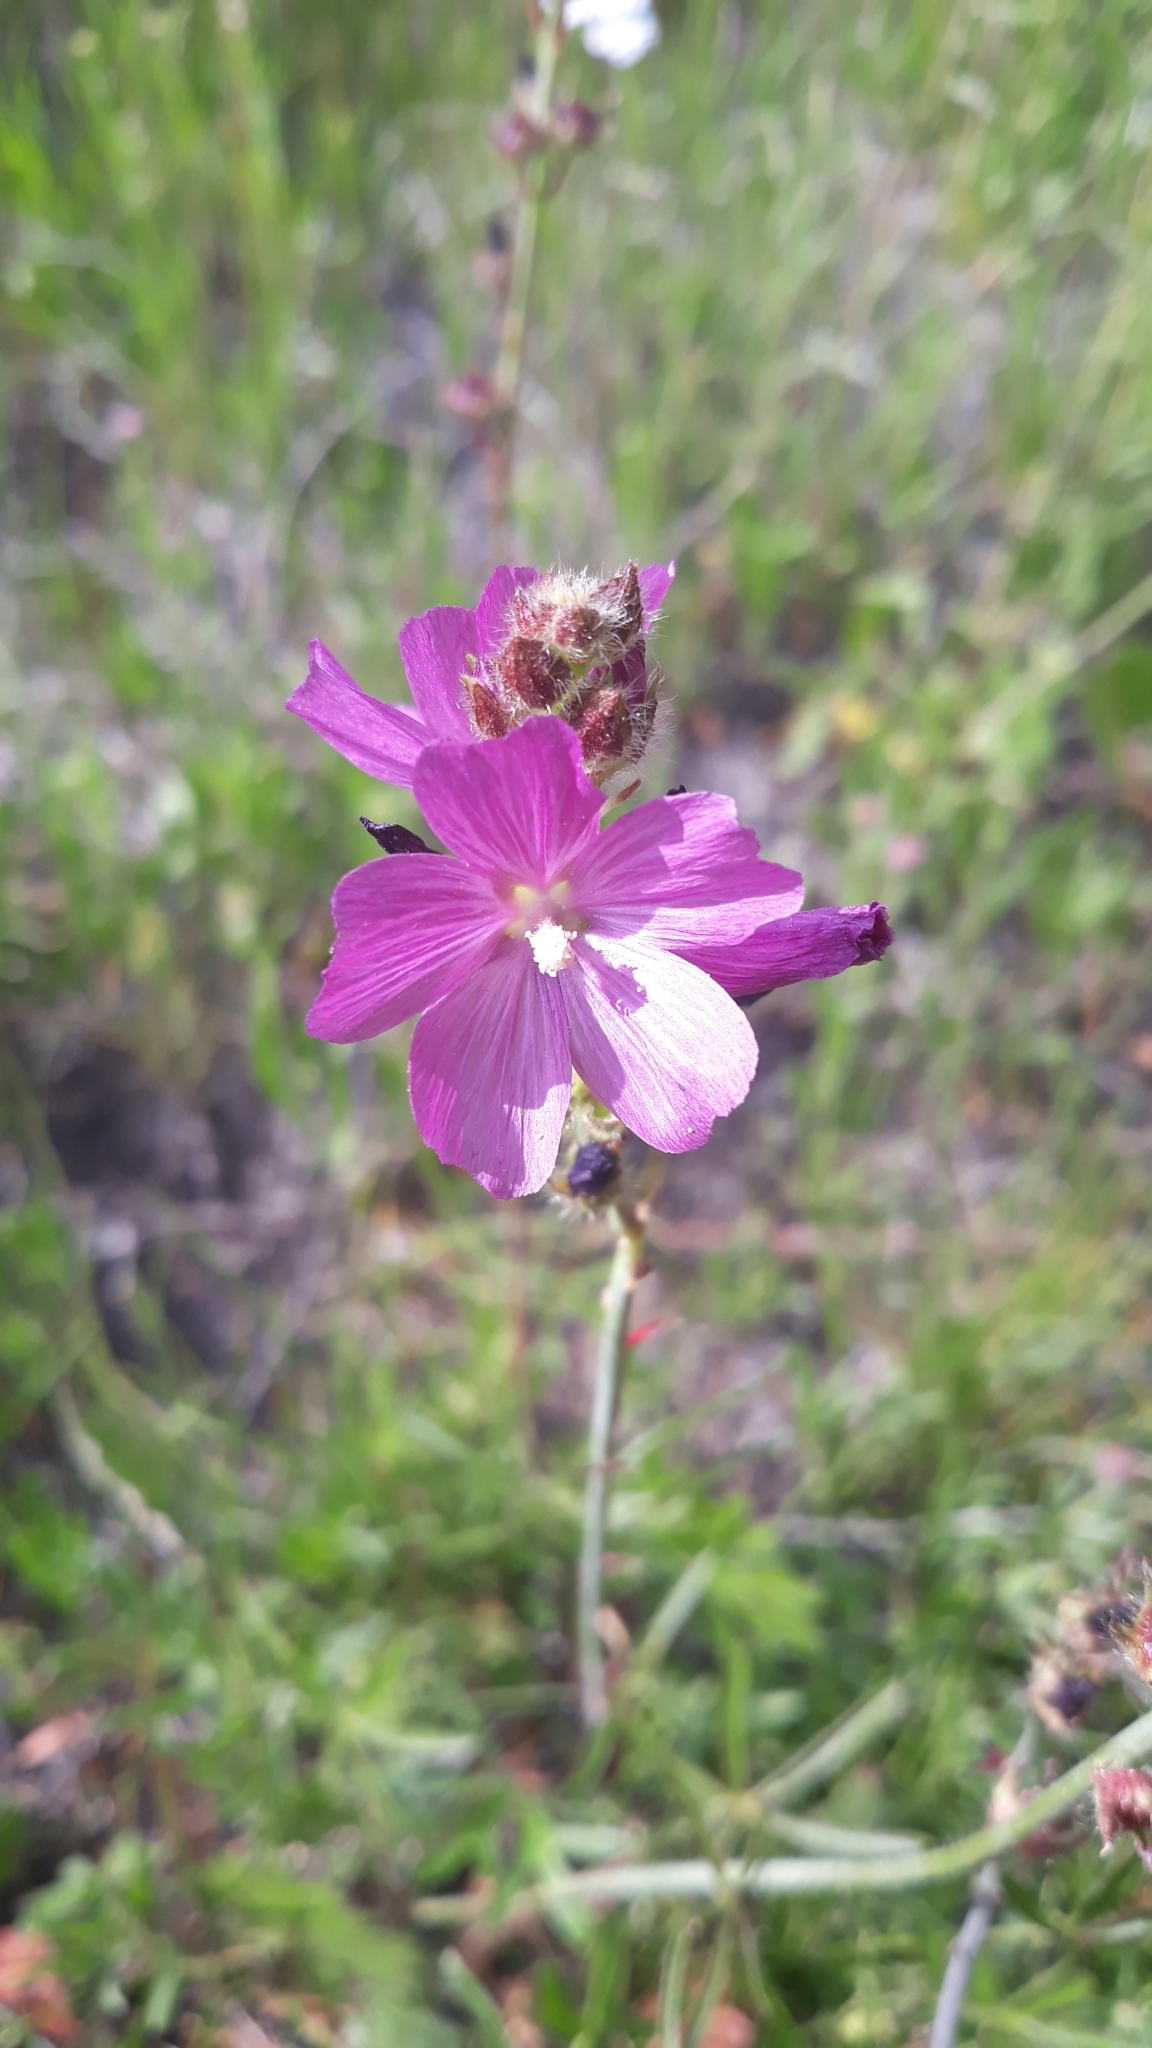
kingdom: Plantae
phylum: Tracheophyta
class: Magnoliopsida
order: Malvales
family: Malvaceae
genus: Sidalcea
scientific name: Sidalcea neomexicana
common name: New mexico checker
